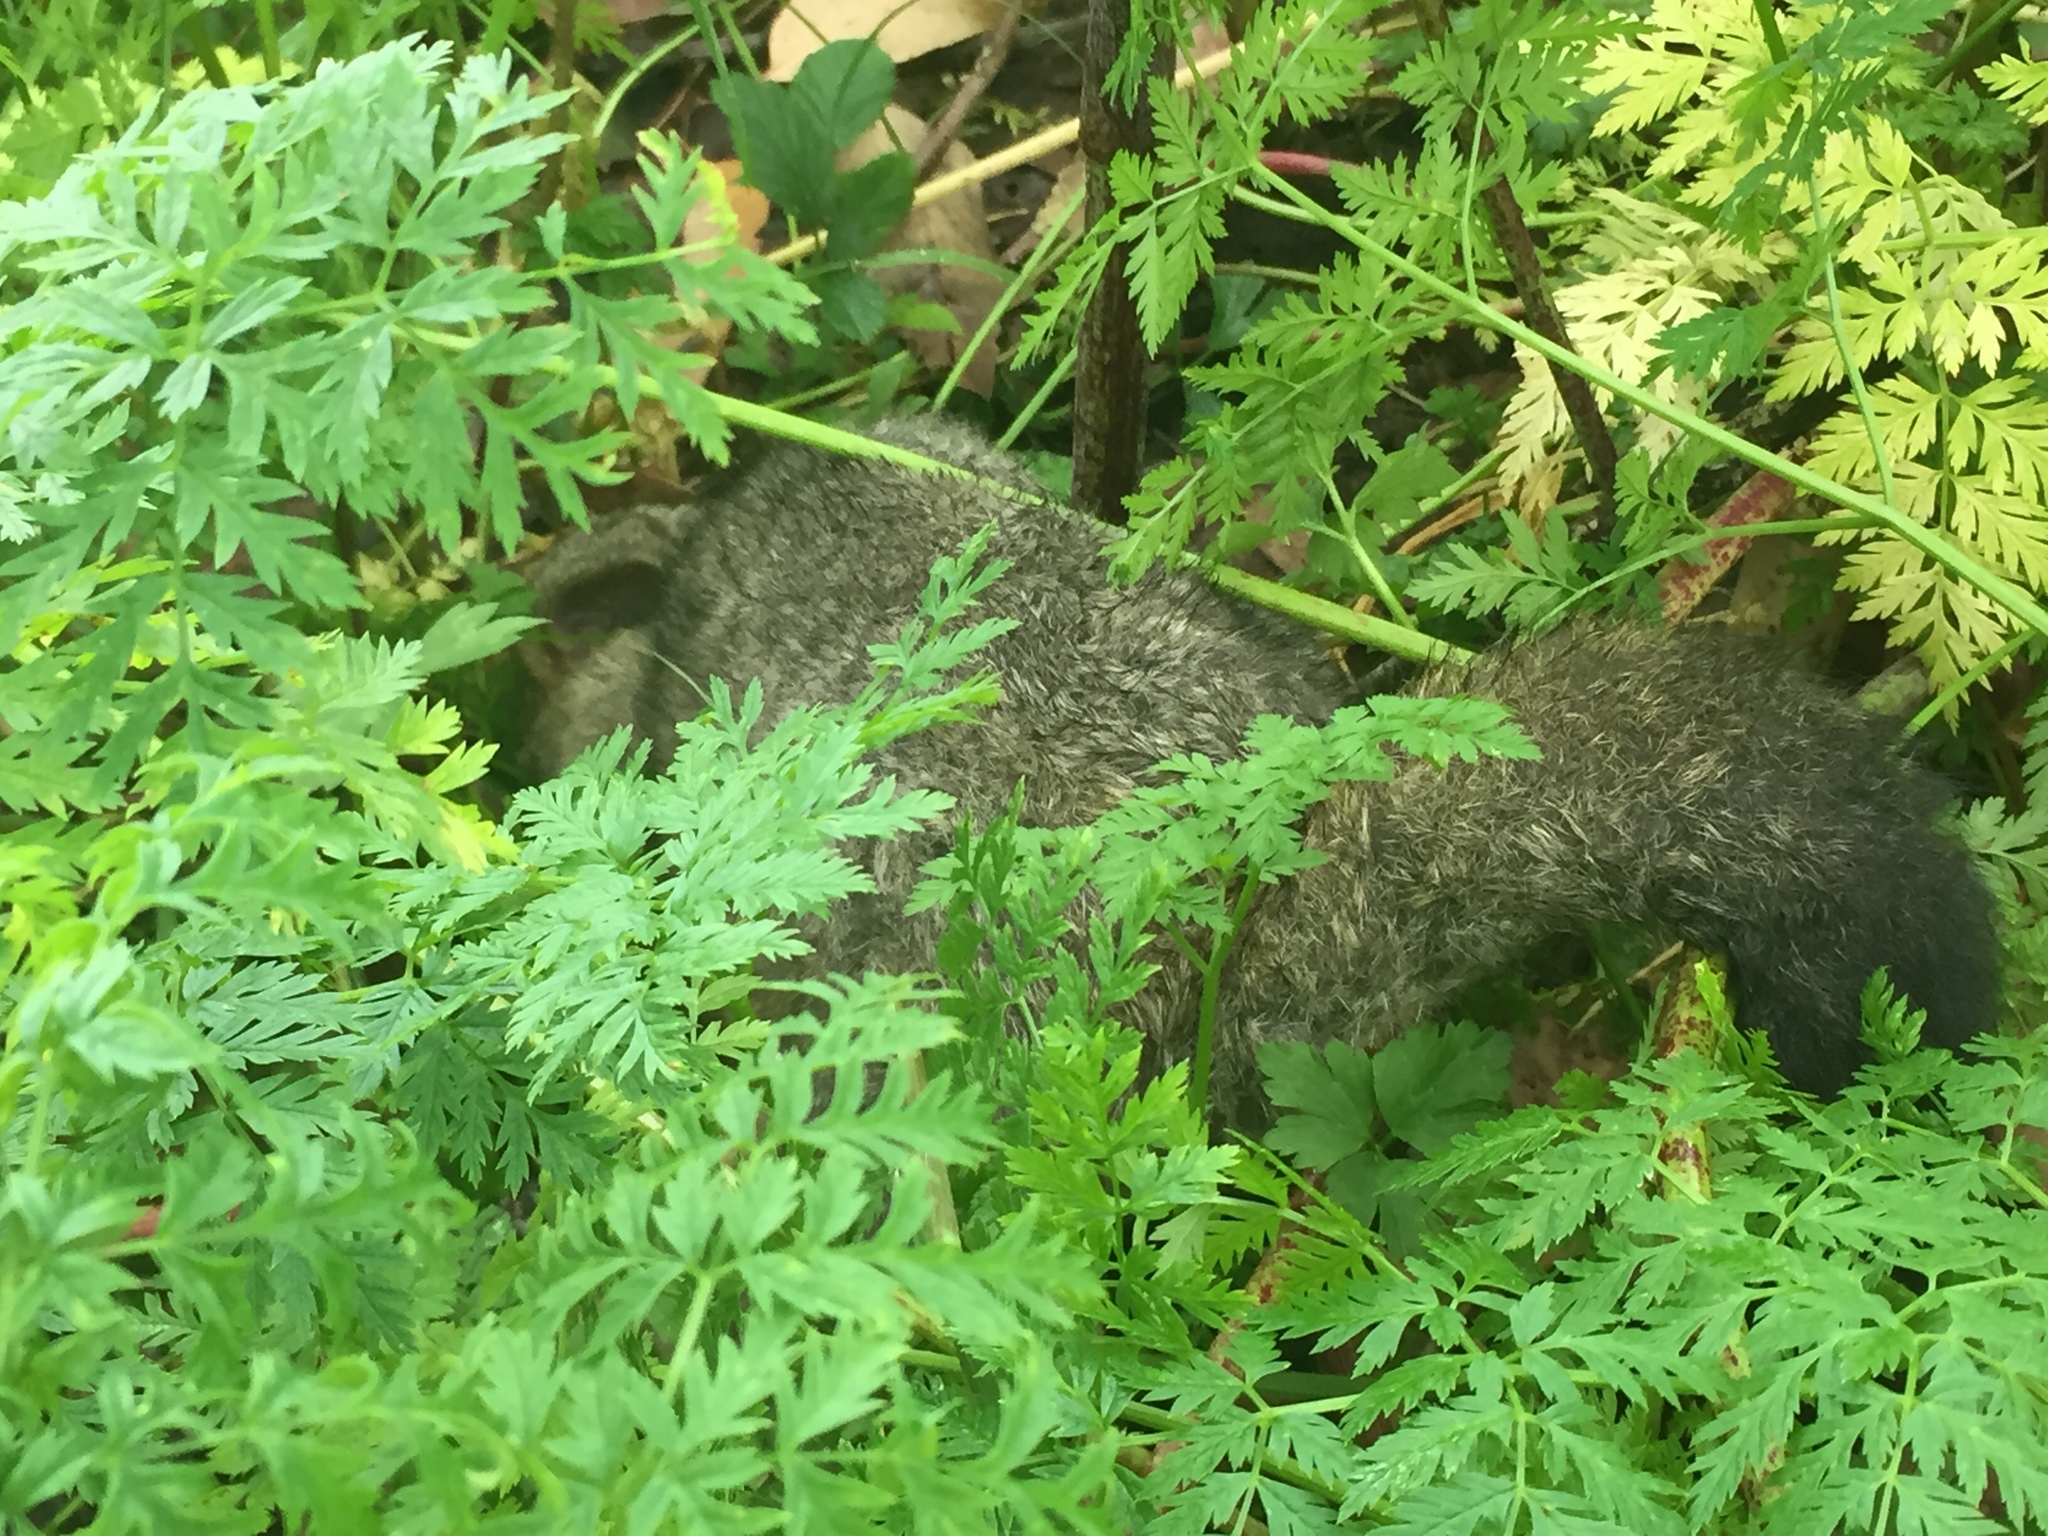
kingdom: Animalia
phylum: Chordata
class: Mammalia
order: Diprotodontia
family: Phalangeridae
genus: Trichosurus
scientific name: Trichosurus vulpecula
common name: Common brushtail
